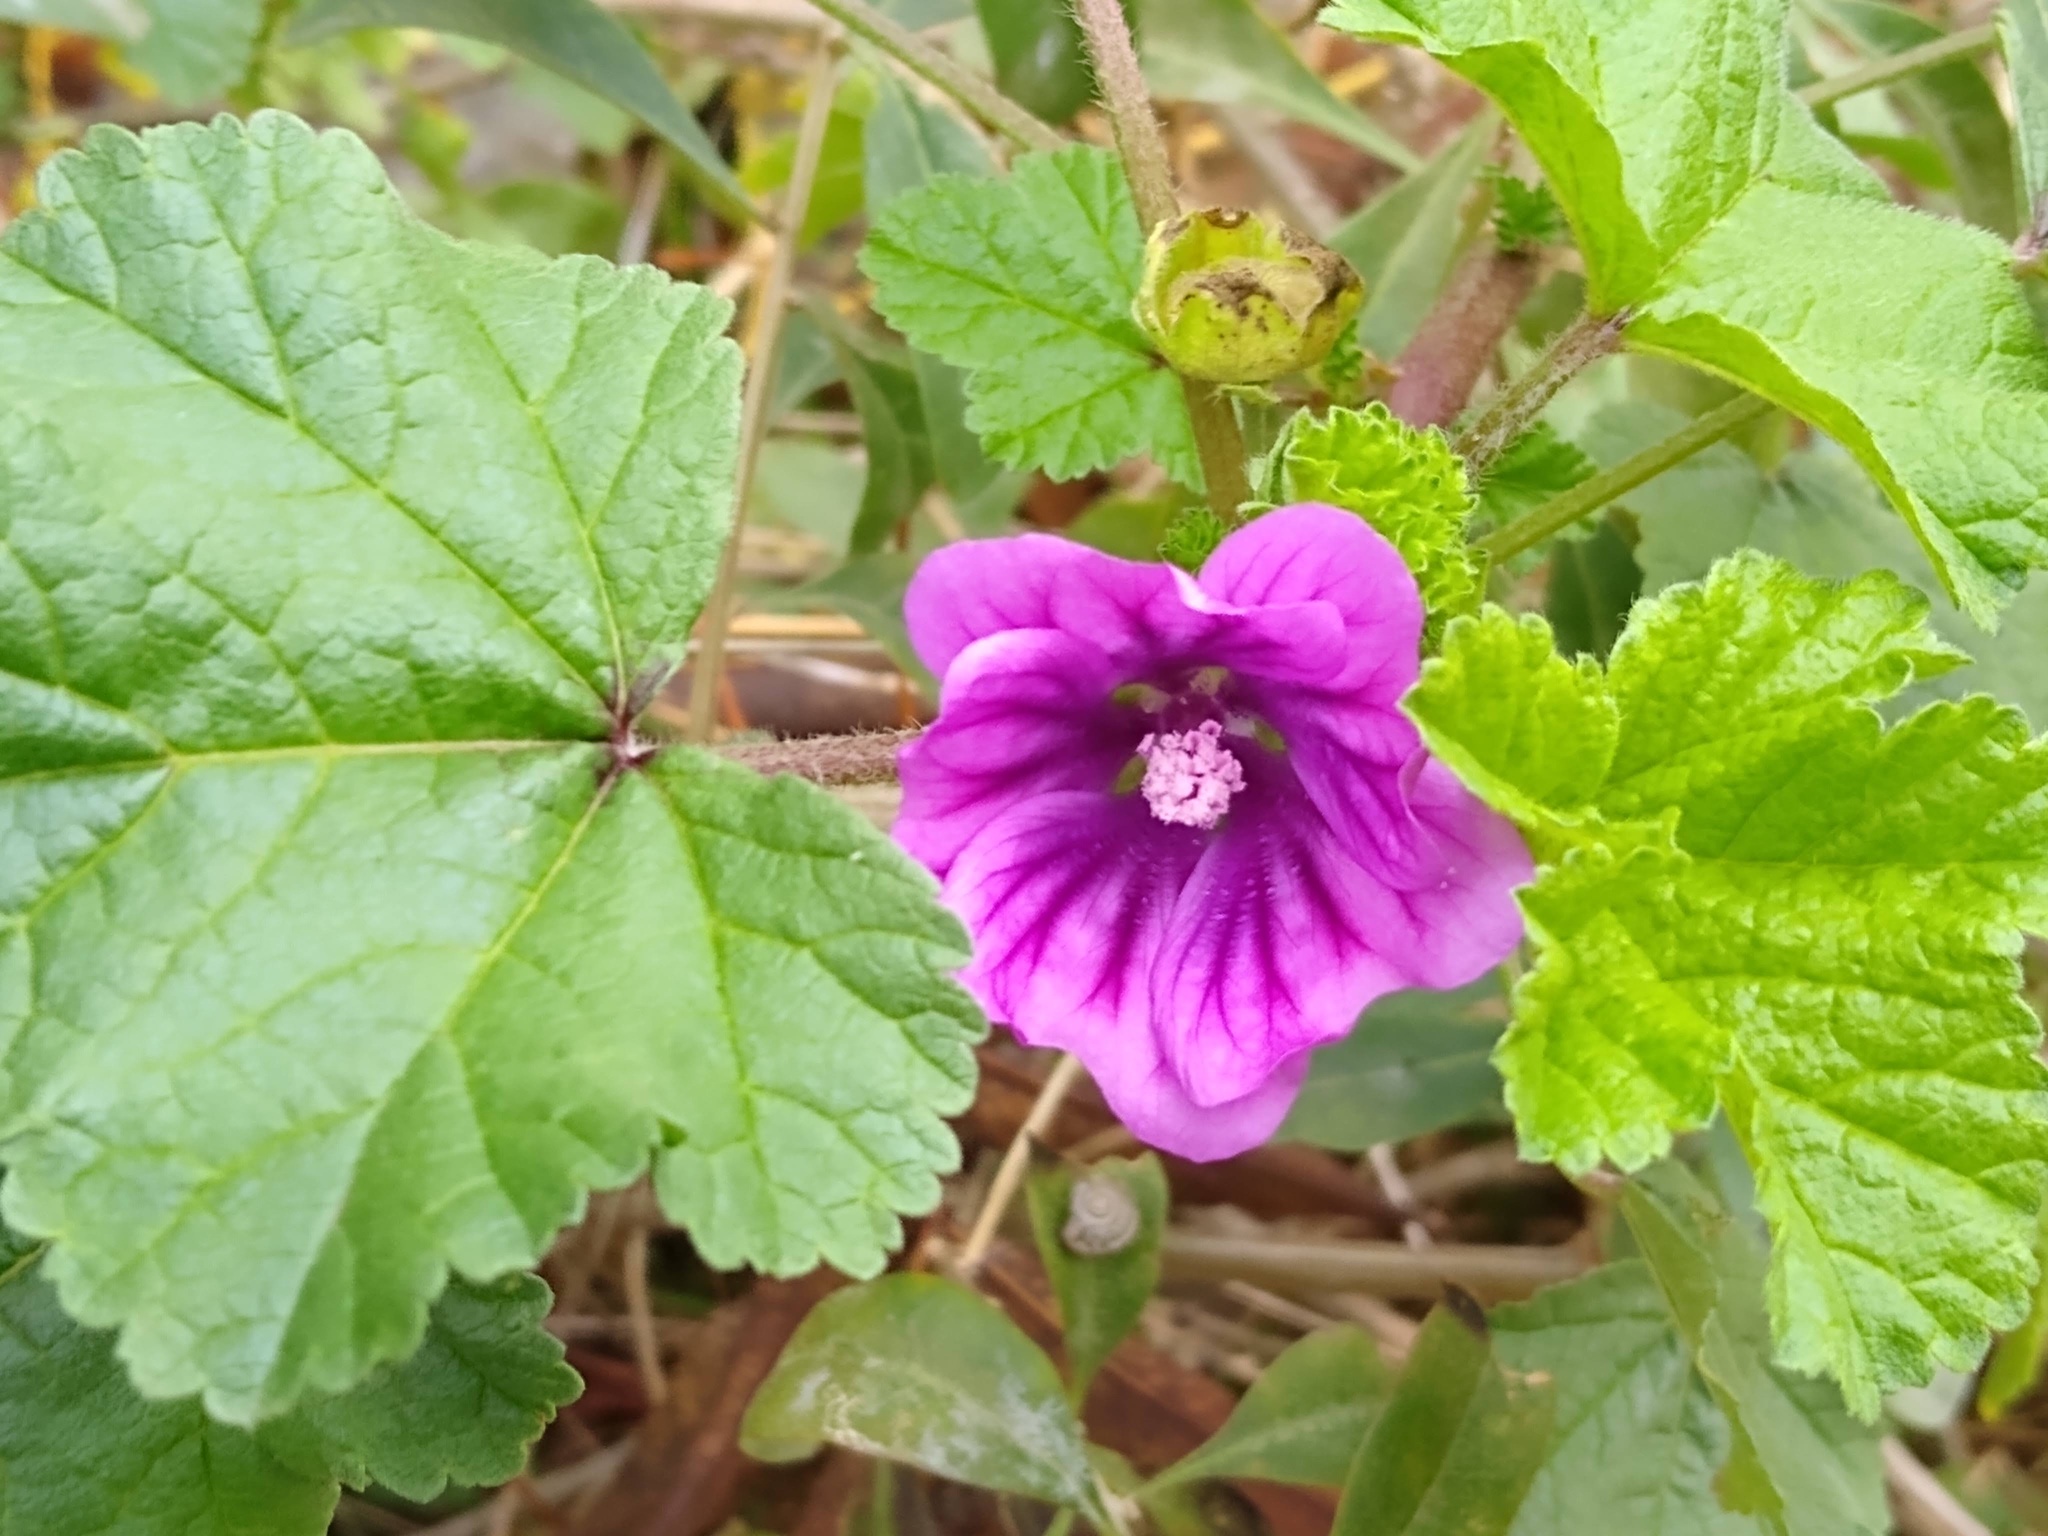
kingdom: Plantae
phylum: Tracheophyta
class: Magnoliopsida
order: Malvales
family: Malvaceae
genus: Malva
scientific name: Malva sylvestris
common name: Common mallow
